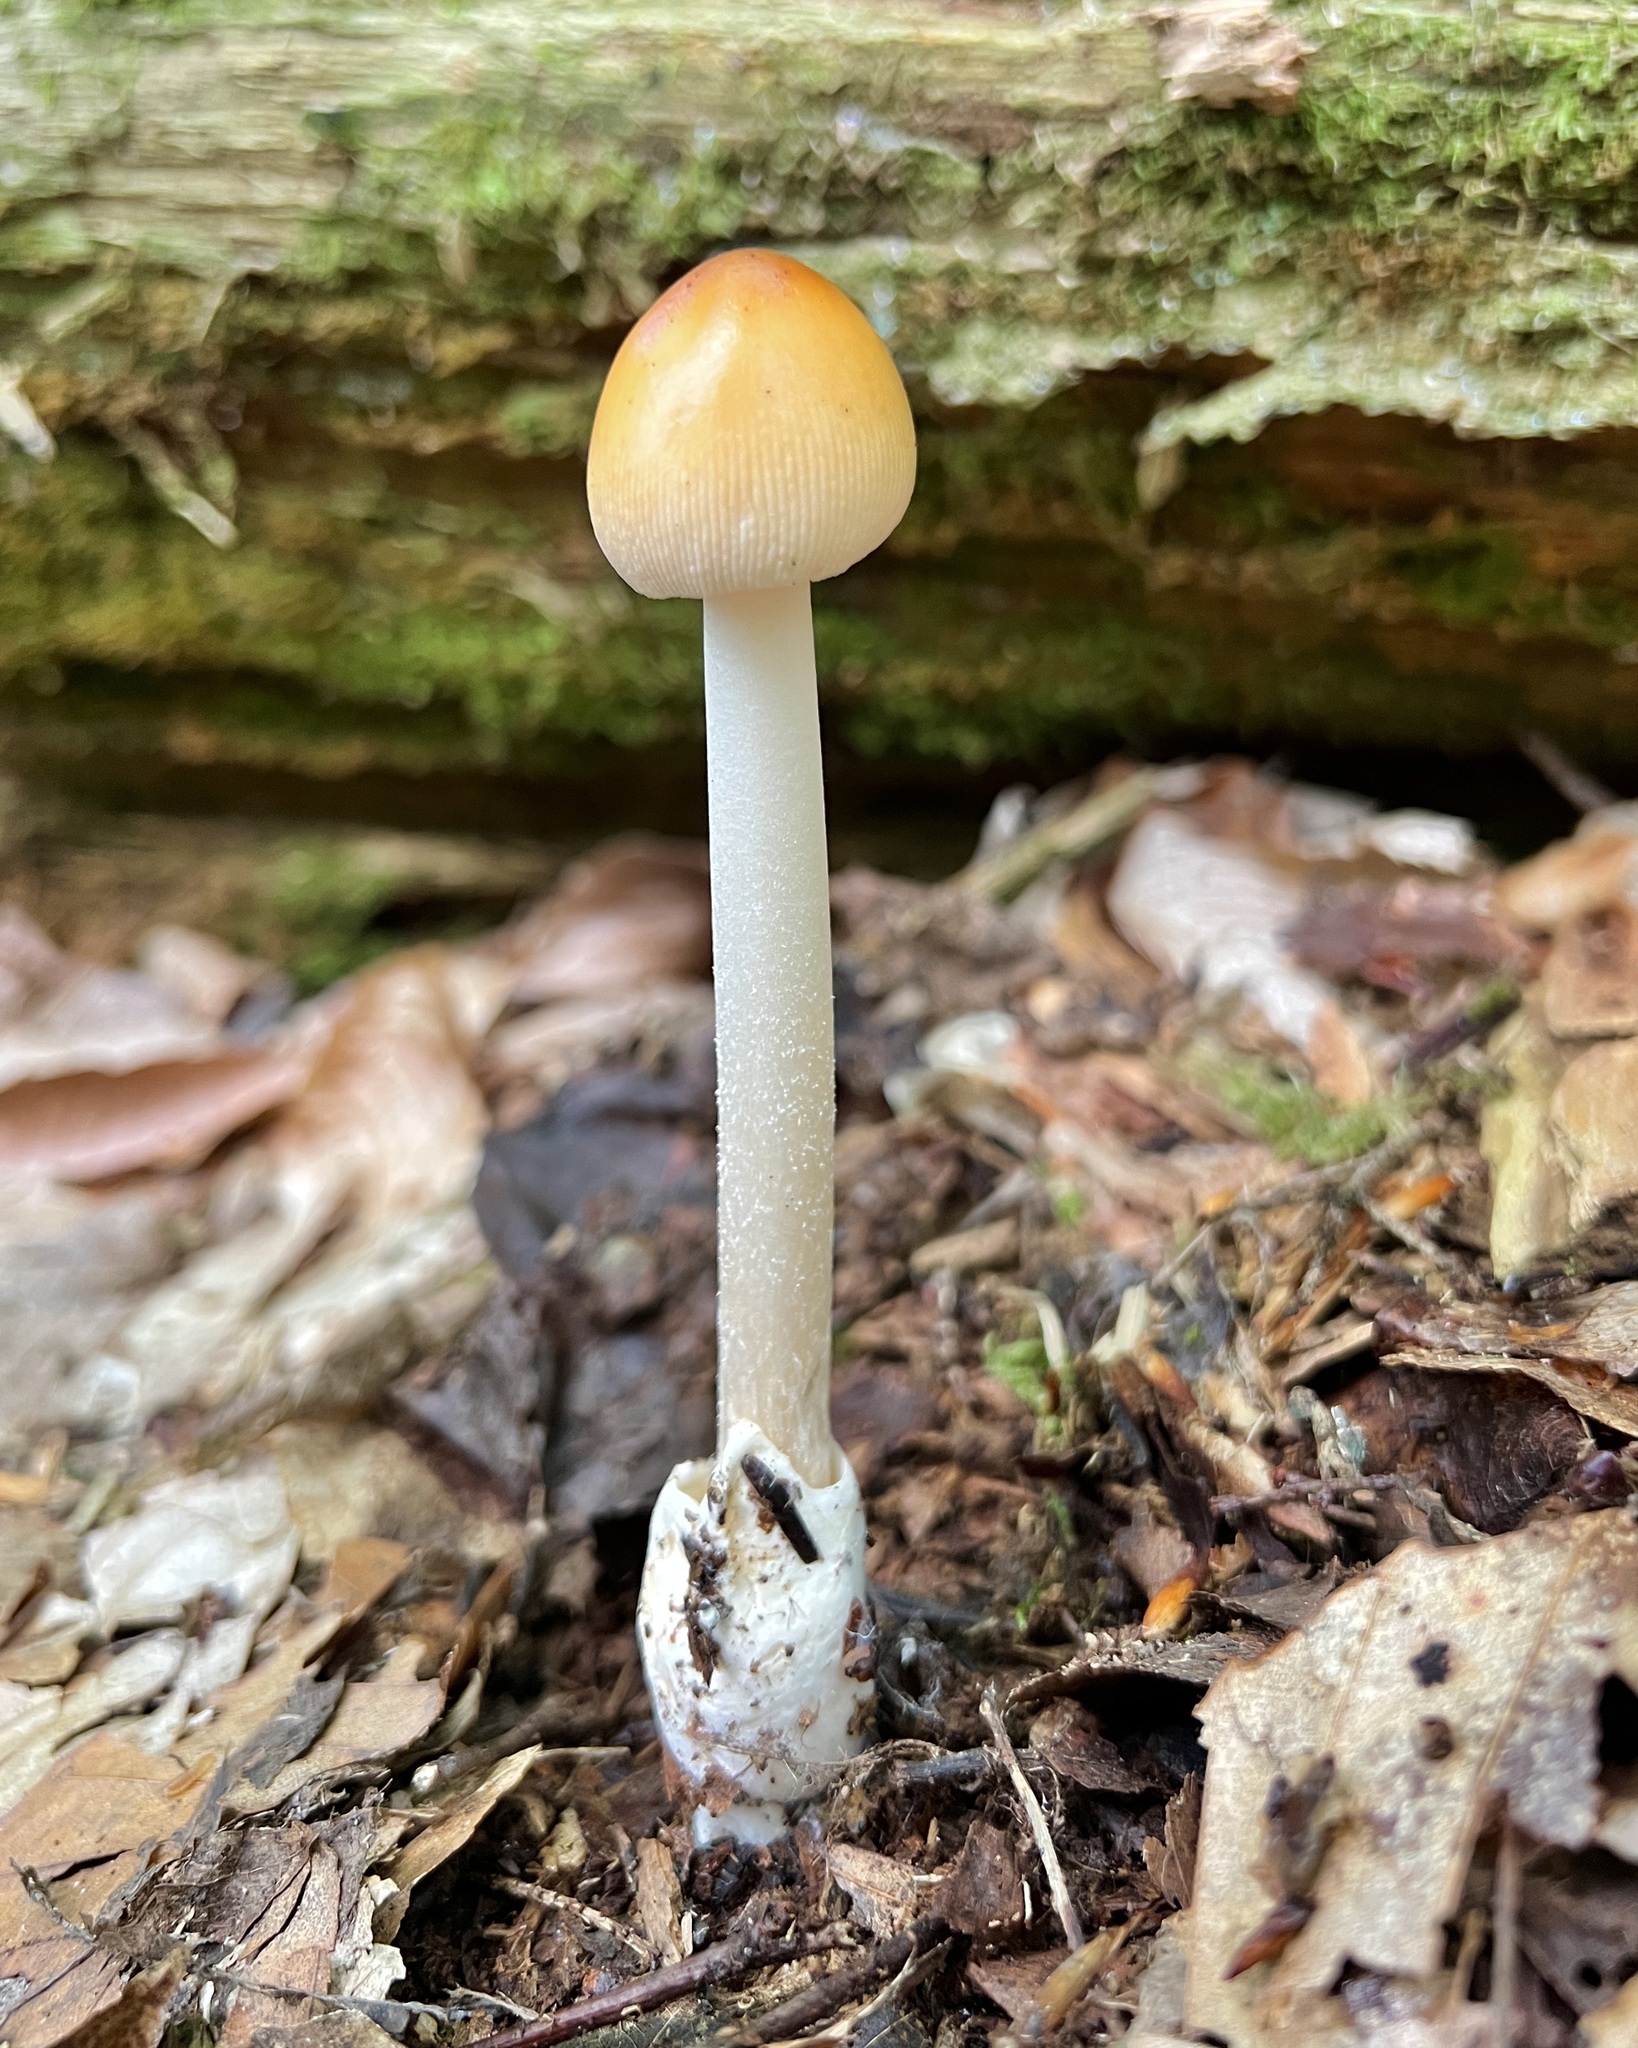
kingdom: Fungi
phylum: Basidiomycota
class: Agaricomycetes
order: Agaricales
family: Amanitaceae
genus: Amanita
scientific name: Amanita fulva
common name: Tawny grisette
